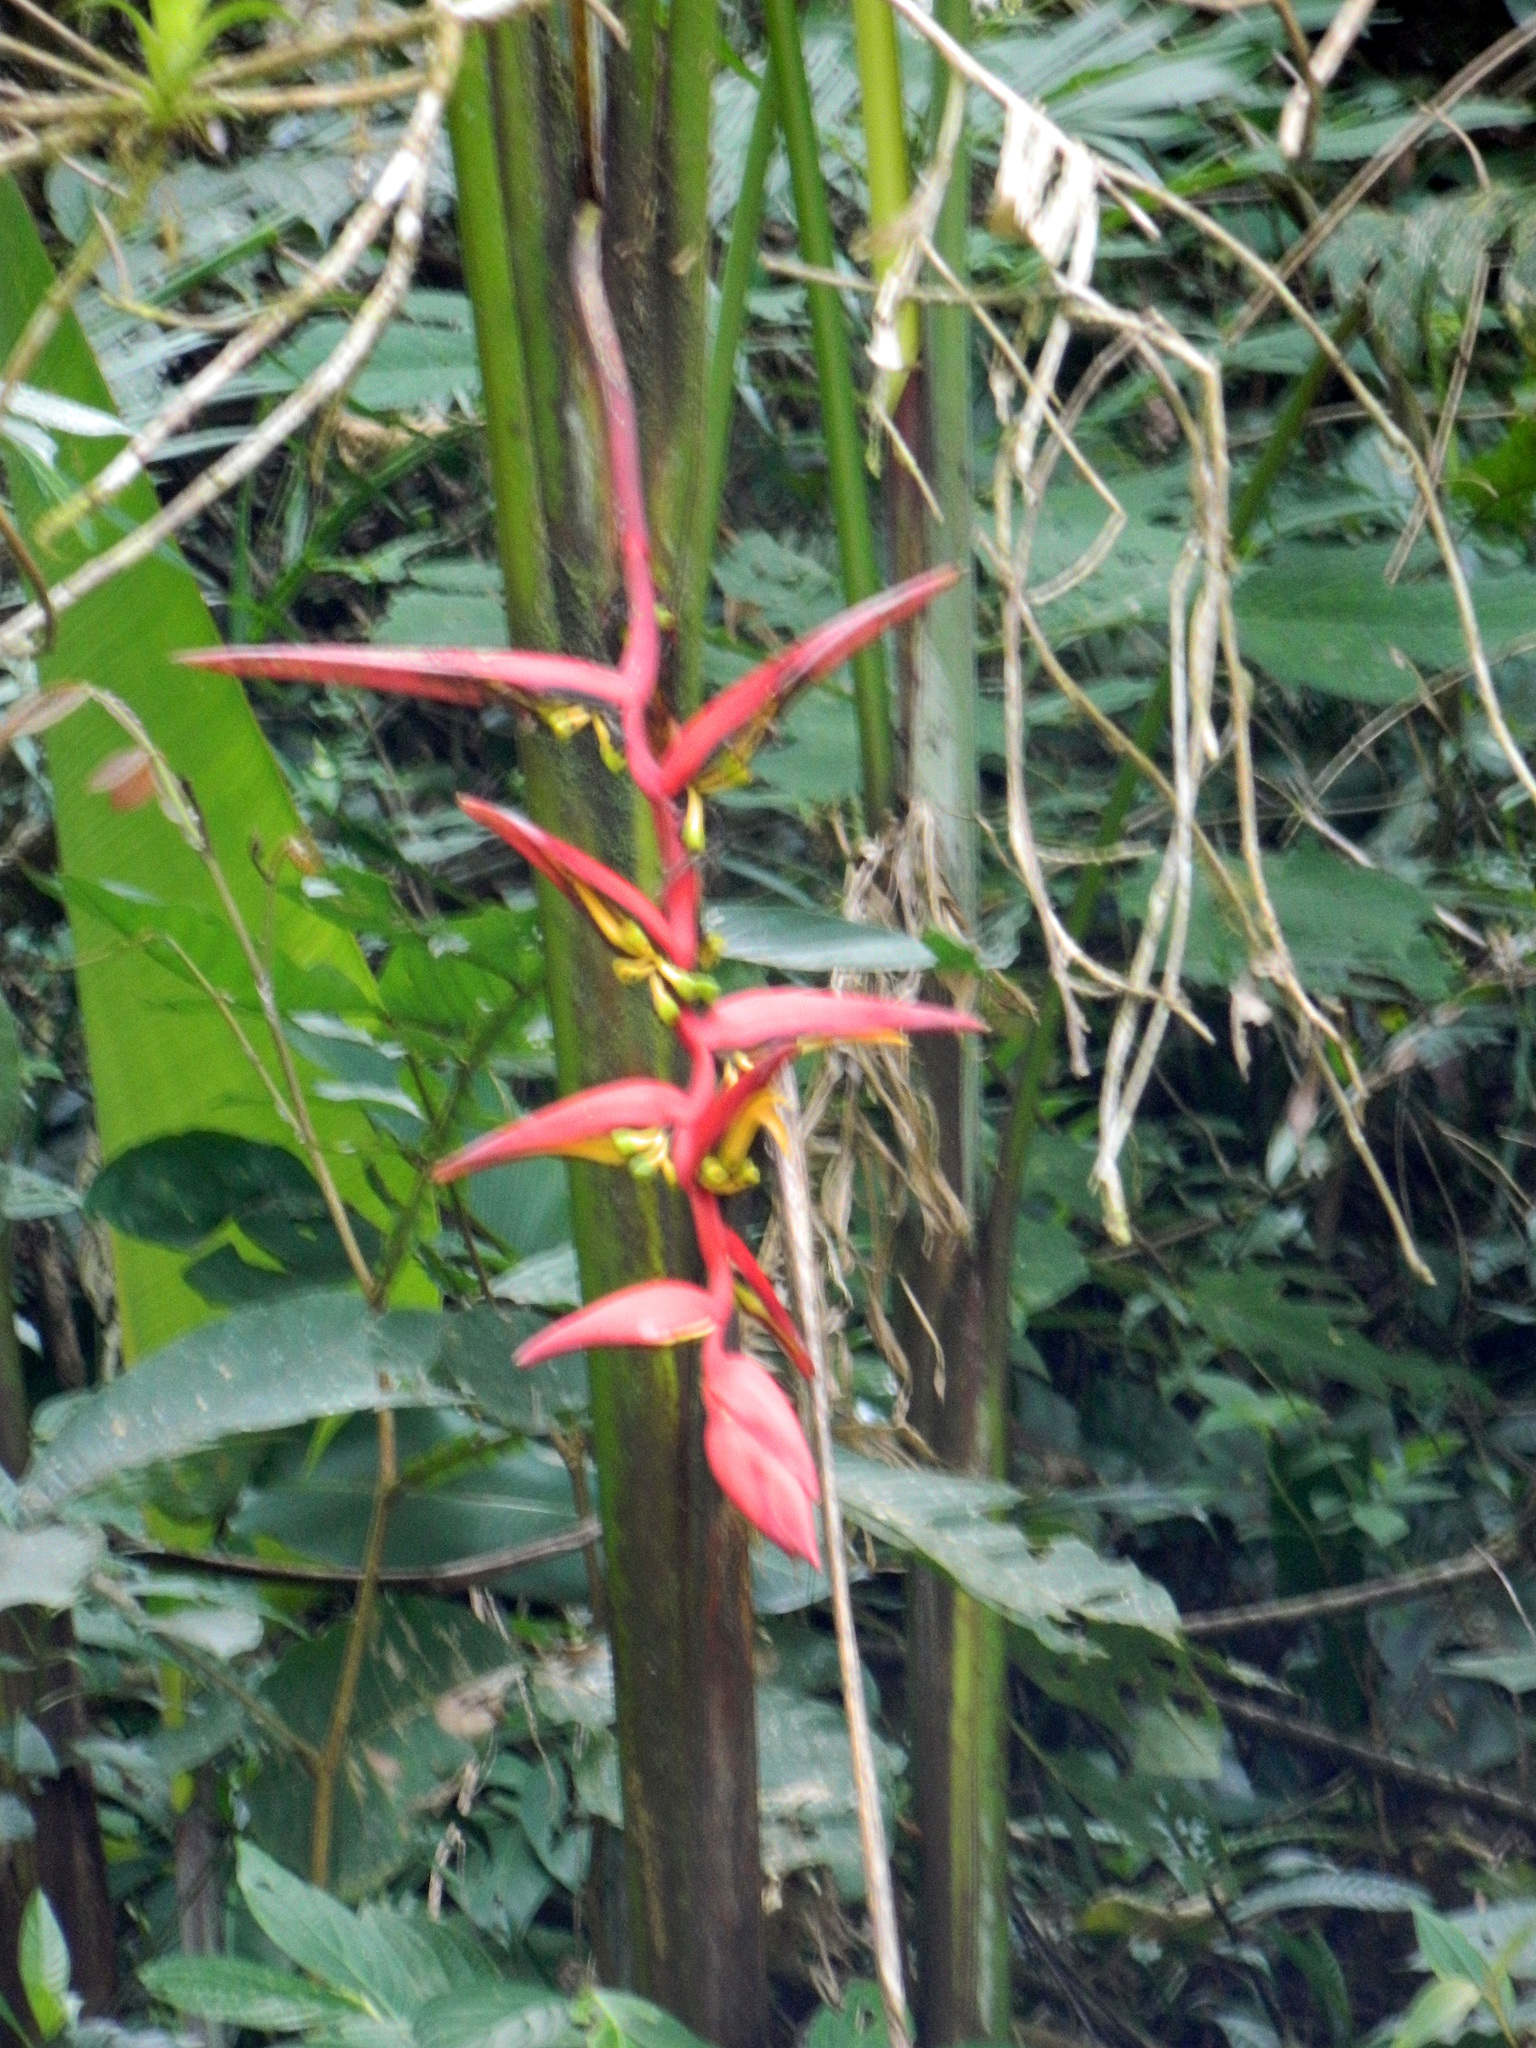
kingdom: Plantae
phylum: Tracheophyta
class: Liliopsida
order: Zingiberales
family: Heliconiaceae
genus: Heliconia
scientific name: Heliconia collinsiana
